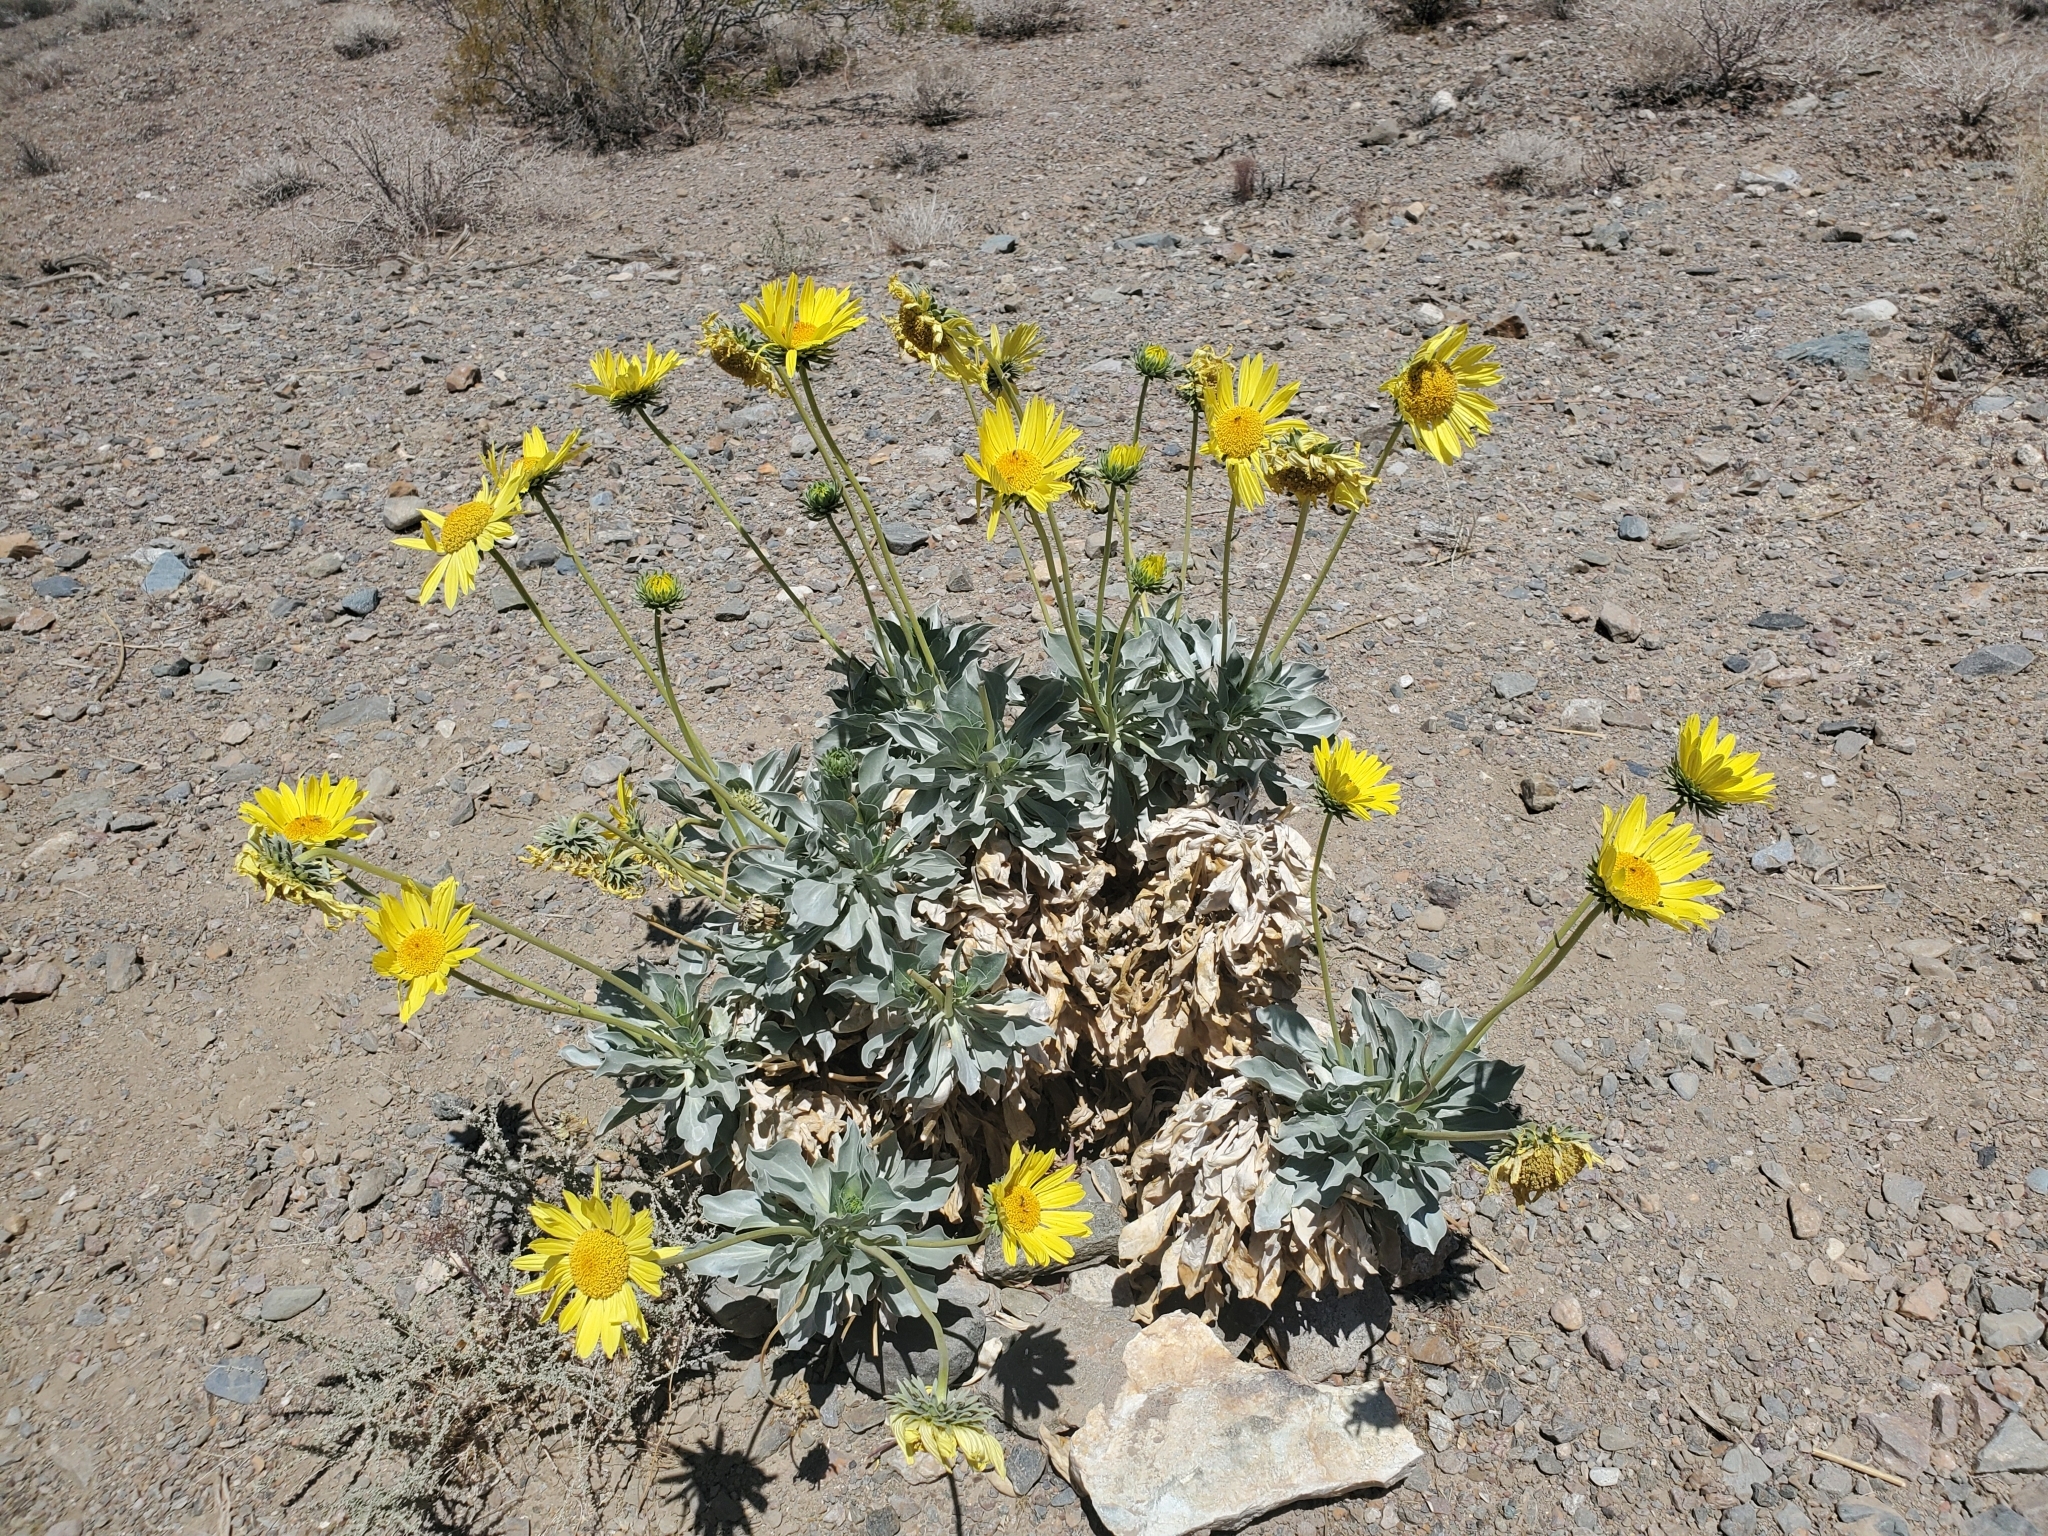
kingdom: Plantae
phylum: Tracheophyta
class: Magnoliopsida
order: Asterales
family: Asteraceae
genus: Enceliopsis
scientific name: Enceliopsis covillei
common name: Panamint daisy
